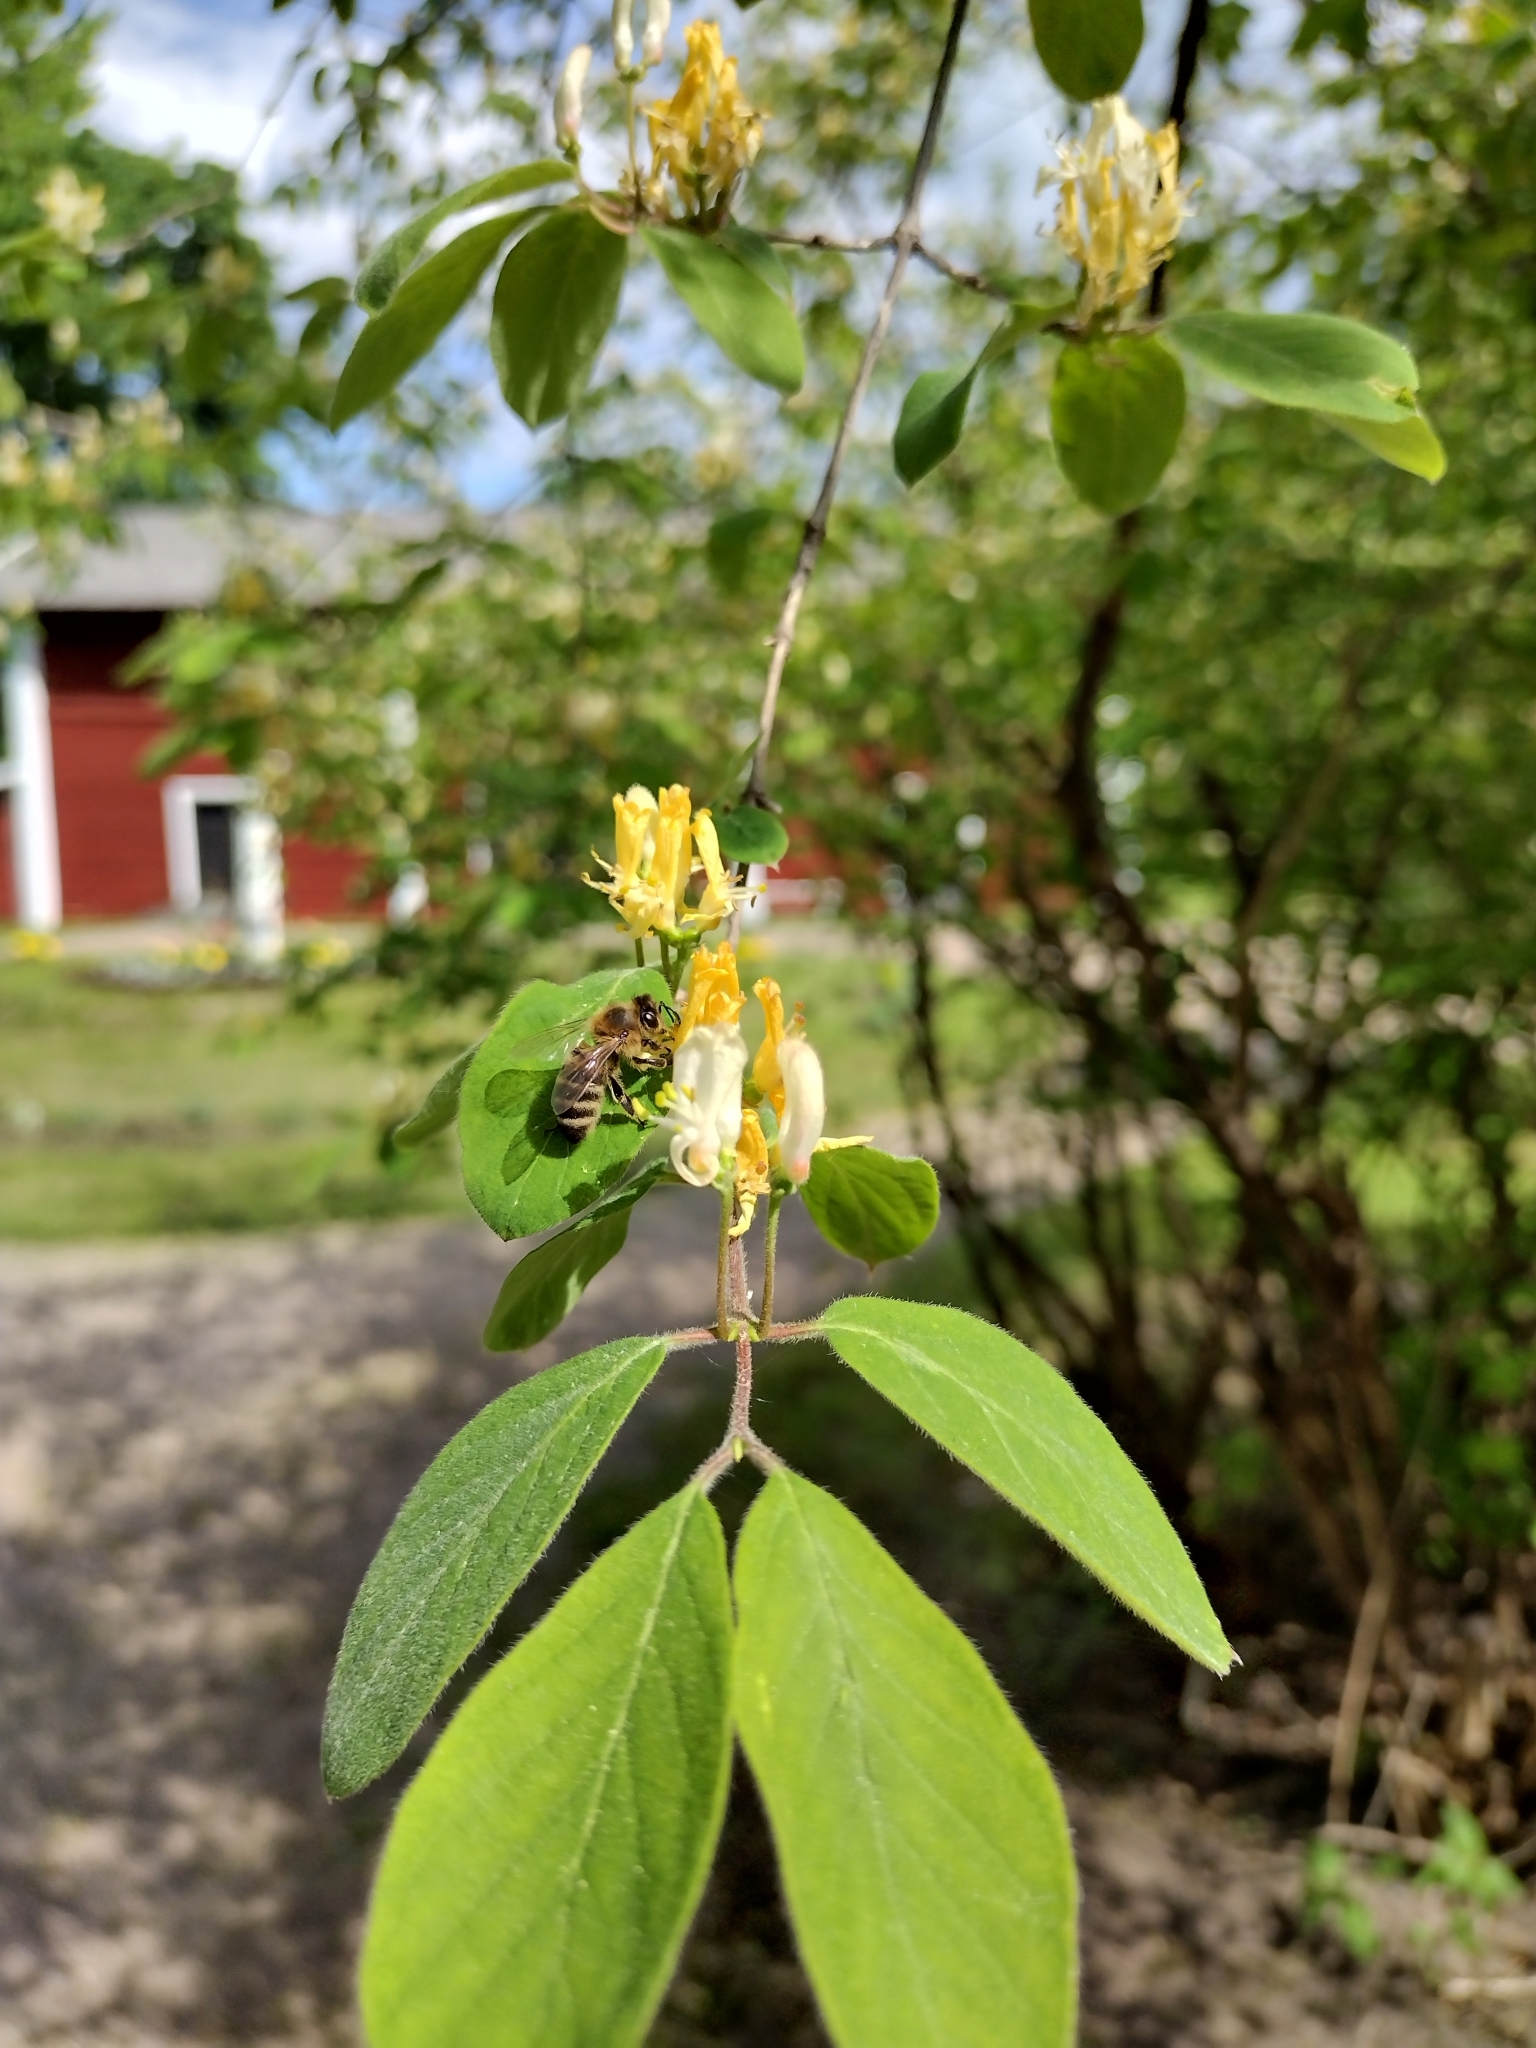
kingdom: Animalia
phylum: Arthropoda
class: Insecta
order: Hymenoptera
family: Apidae
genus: Apis
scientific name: Apis mellifera
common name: Honey bee
